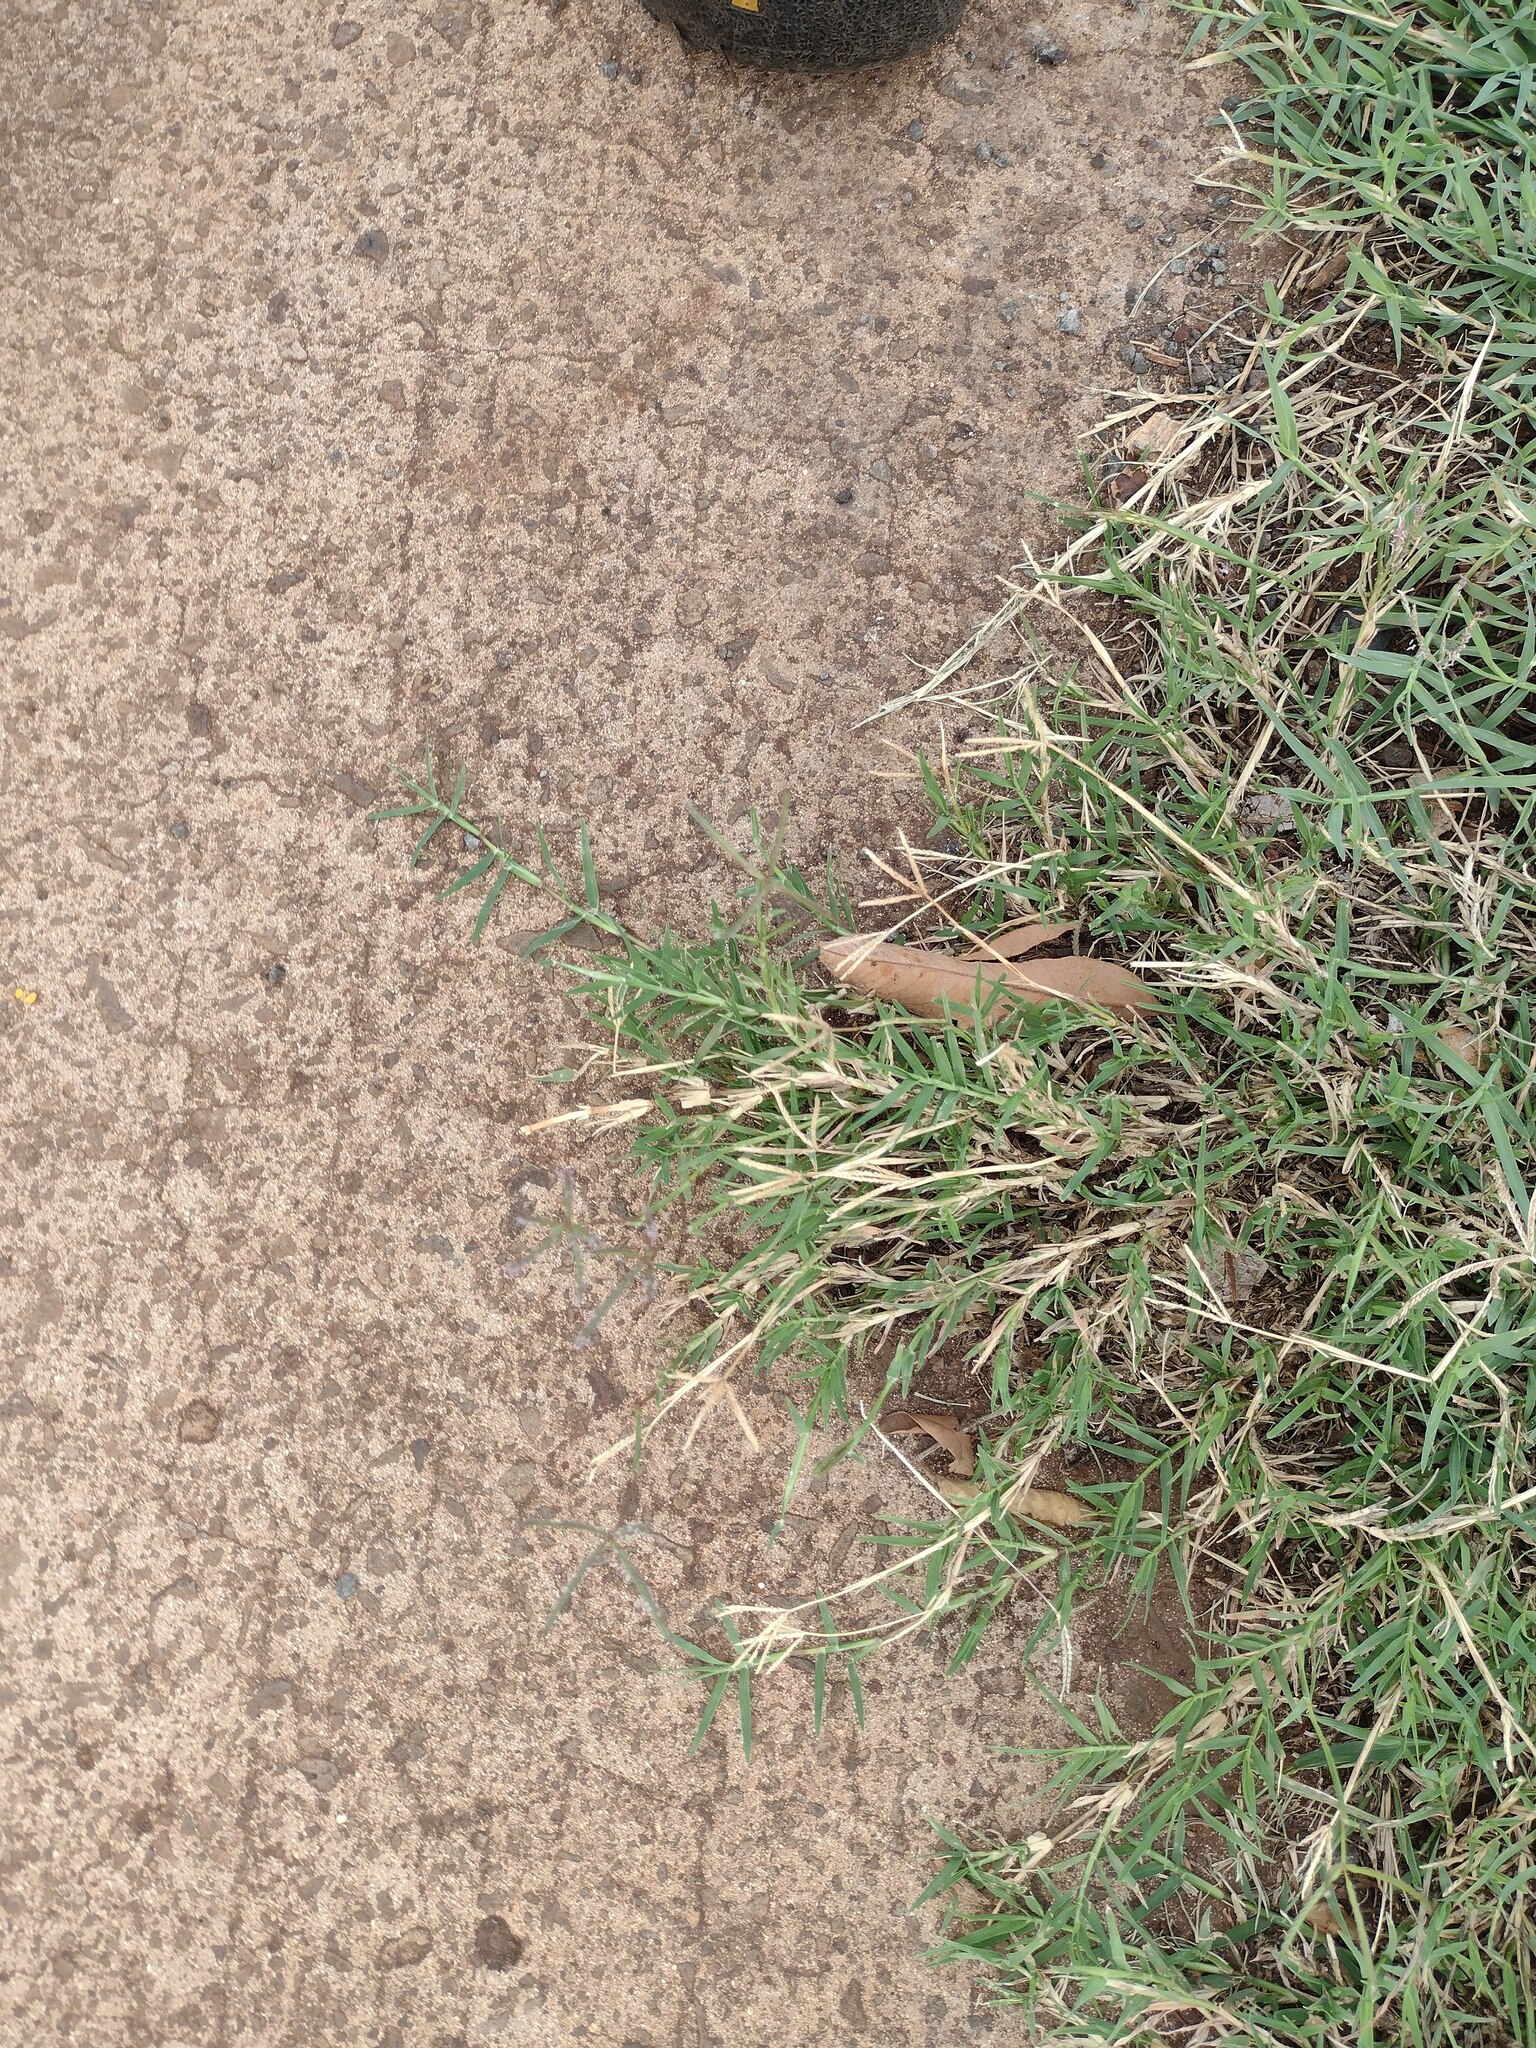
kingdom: Plantae
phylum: Tracheophyta
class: Liliopsida
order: Poales
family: Poaceae
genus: Cynodon
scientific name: Cynodon dactylon
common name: Bermuda grass
